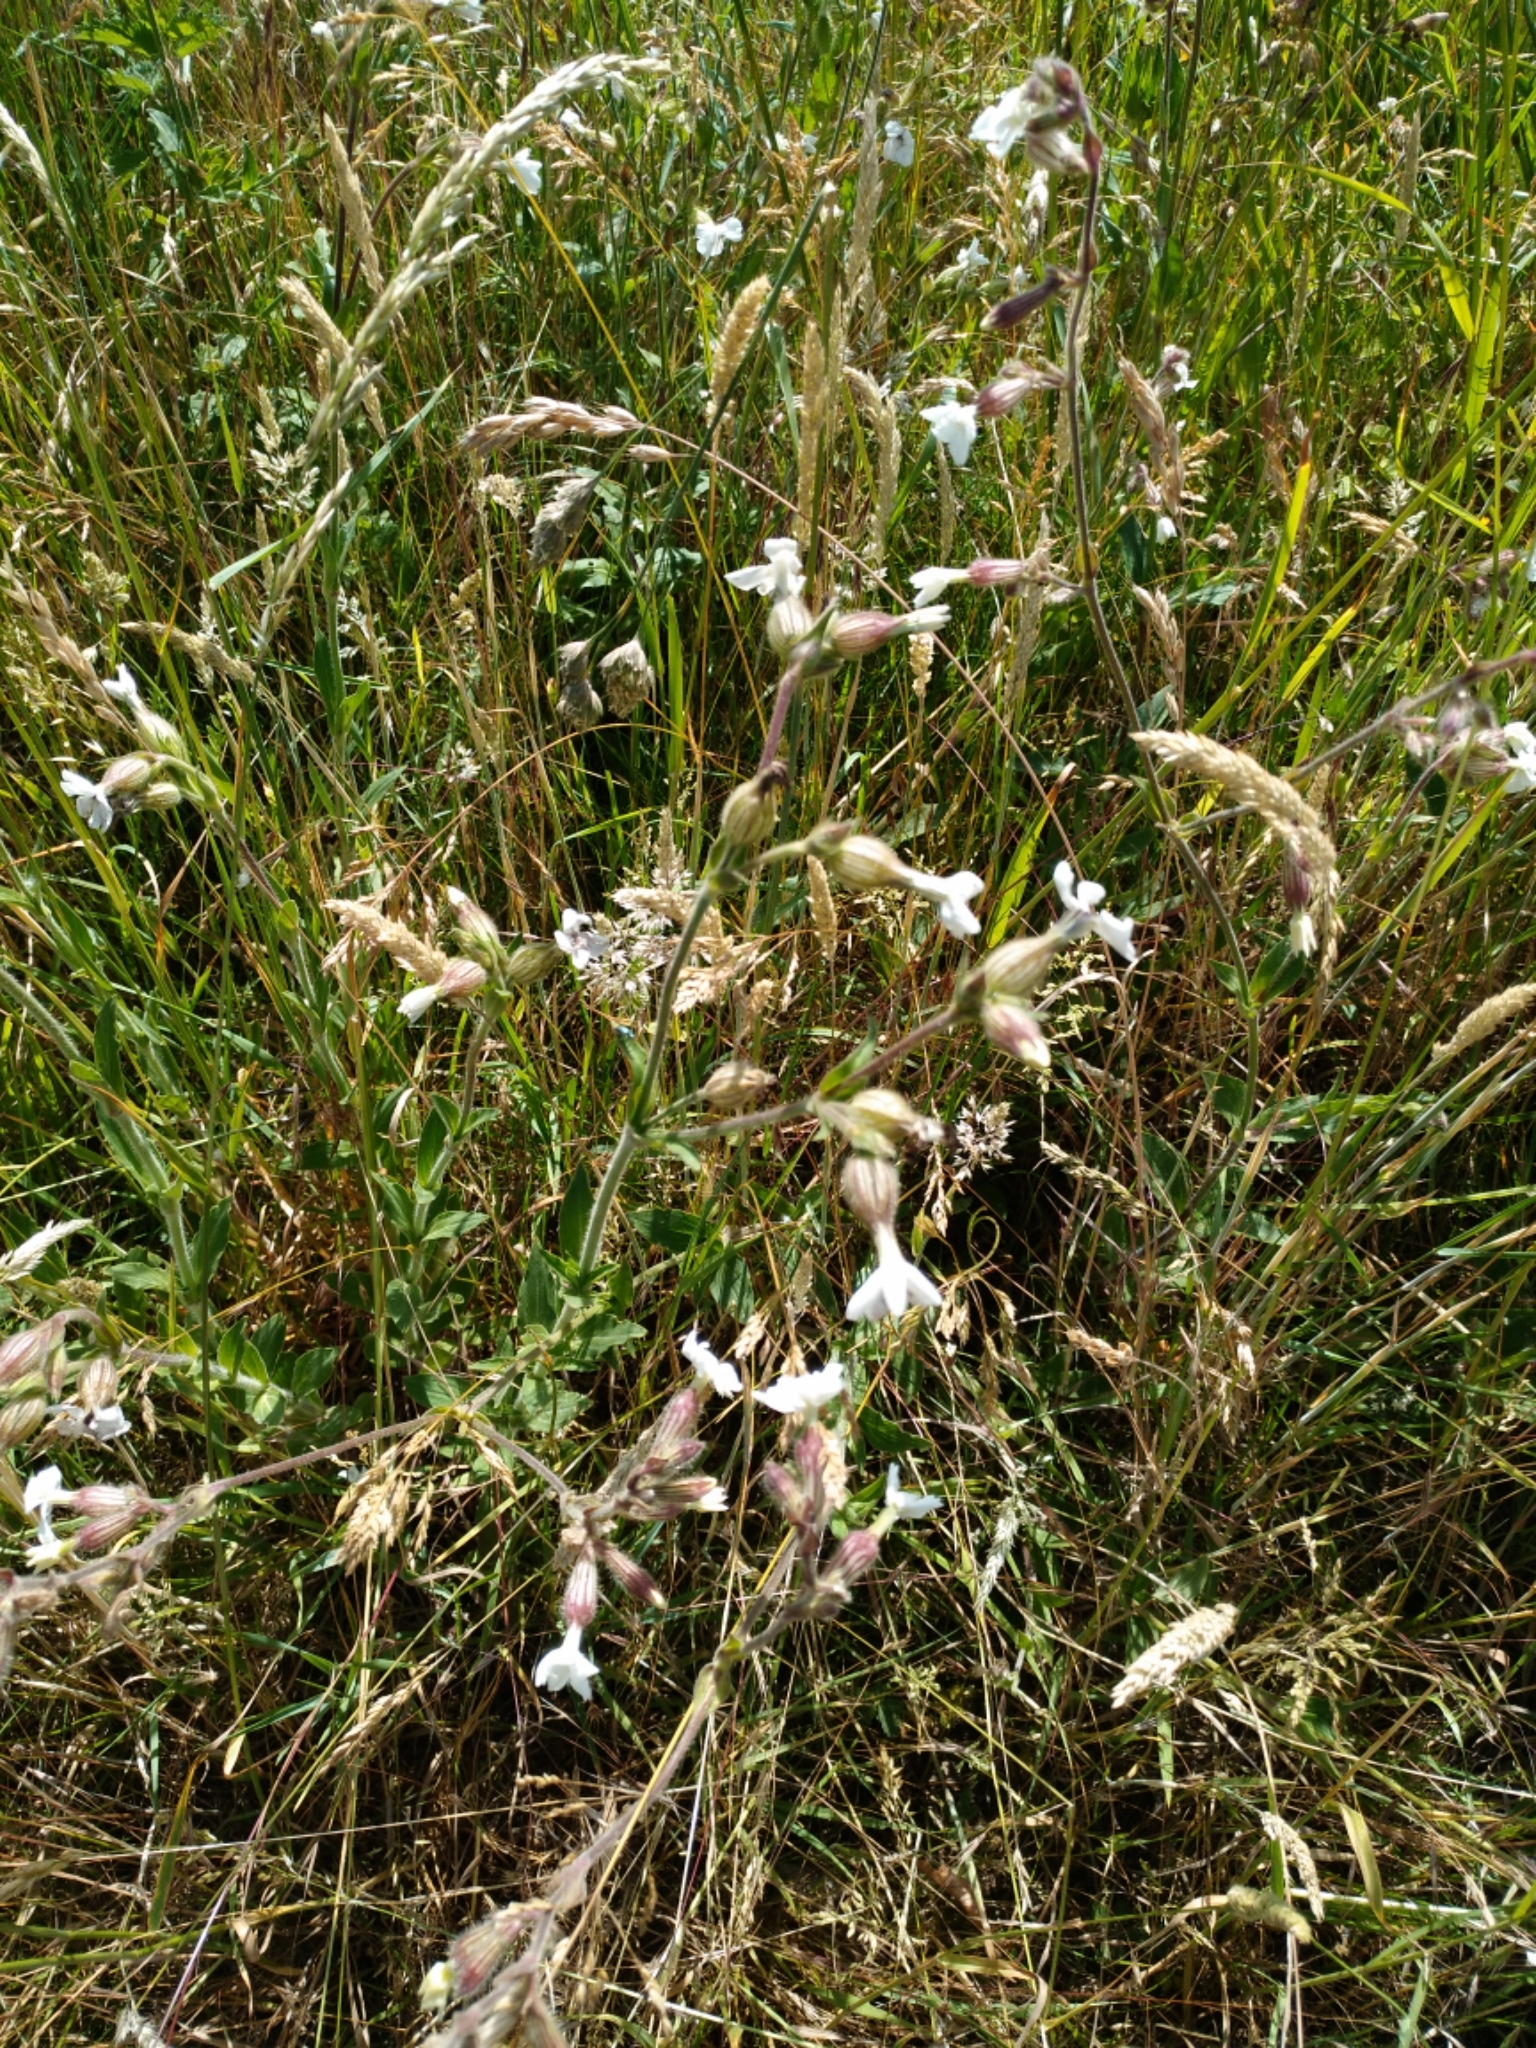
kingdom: Plantae
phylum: Tracheophyta
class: Magnoliopsida
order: Caryophyllales
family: Caryophyllaceae
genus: Silene
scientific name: Silene latifolia
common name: White campion
